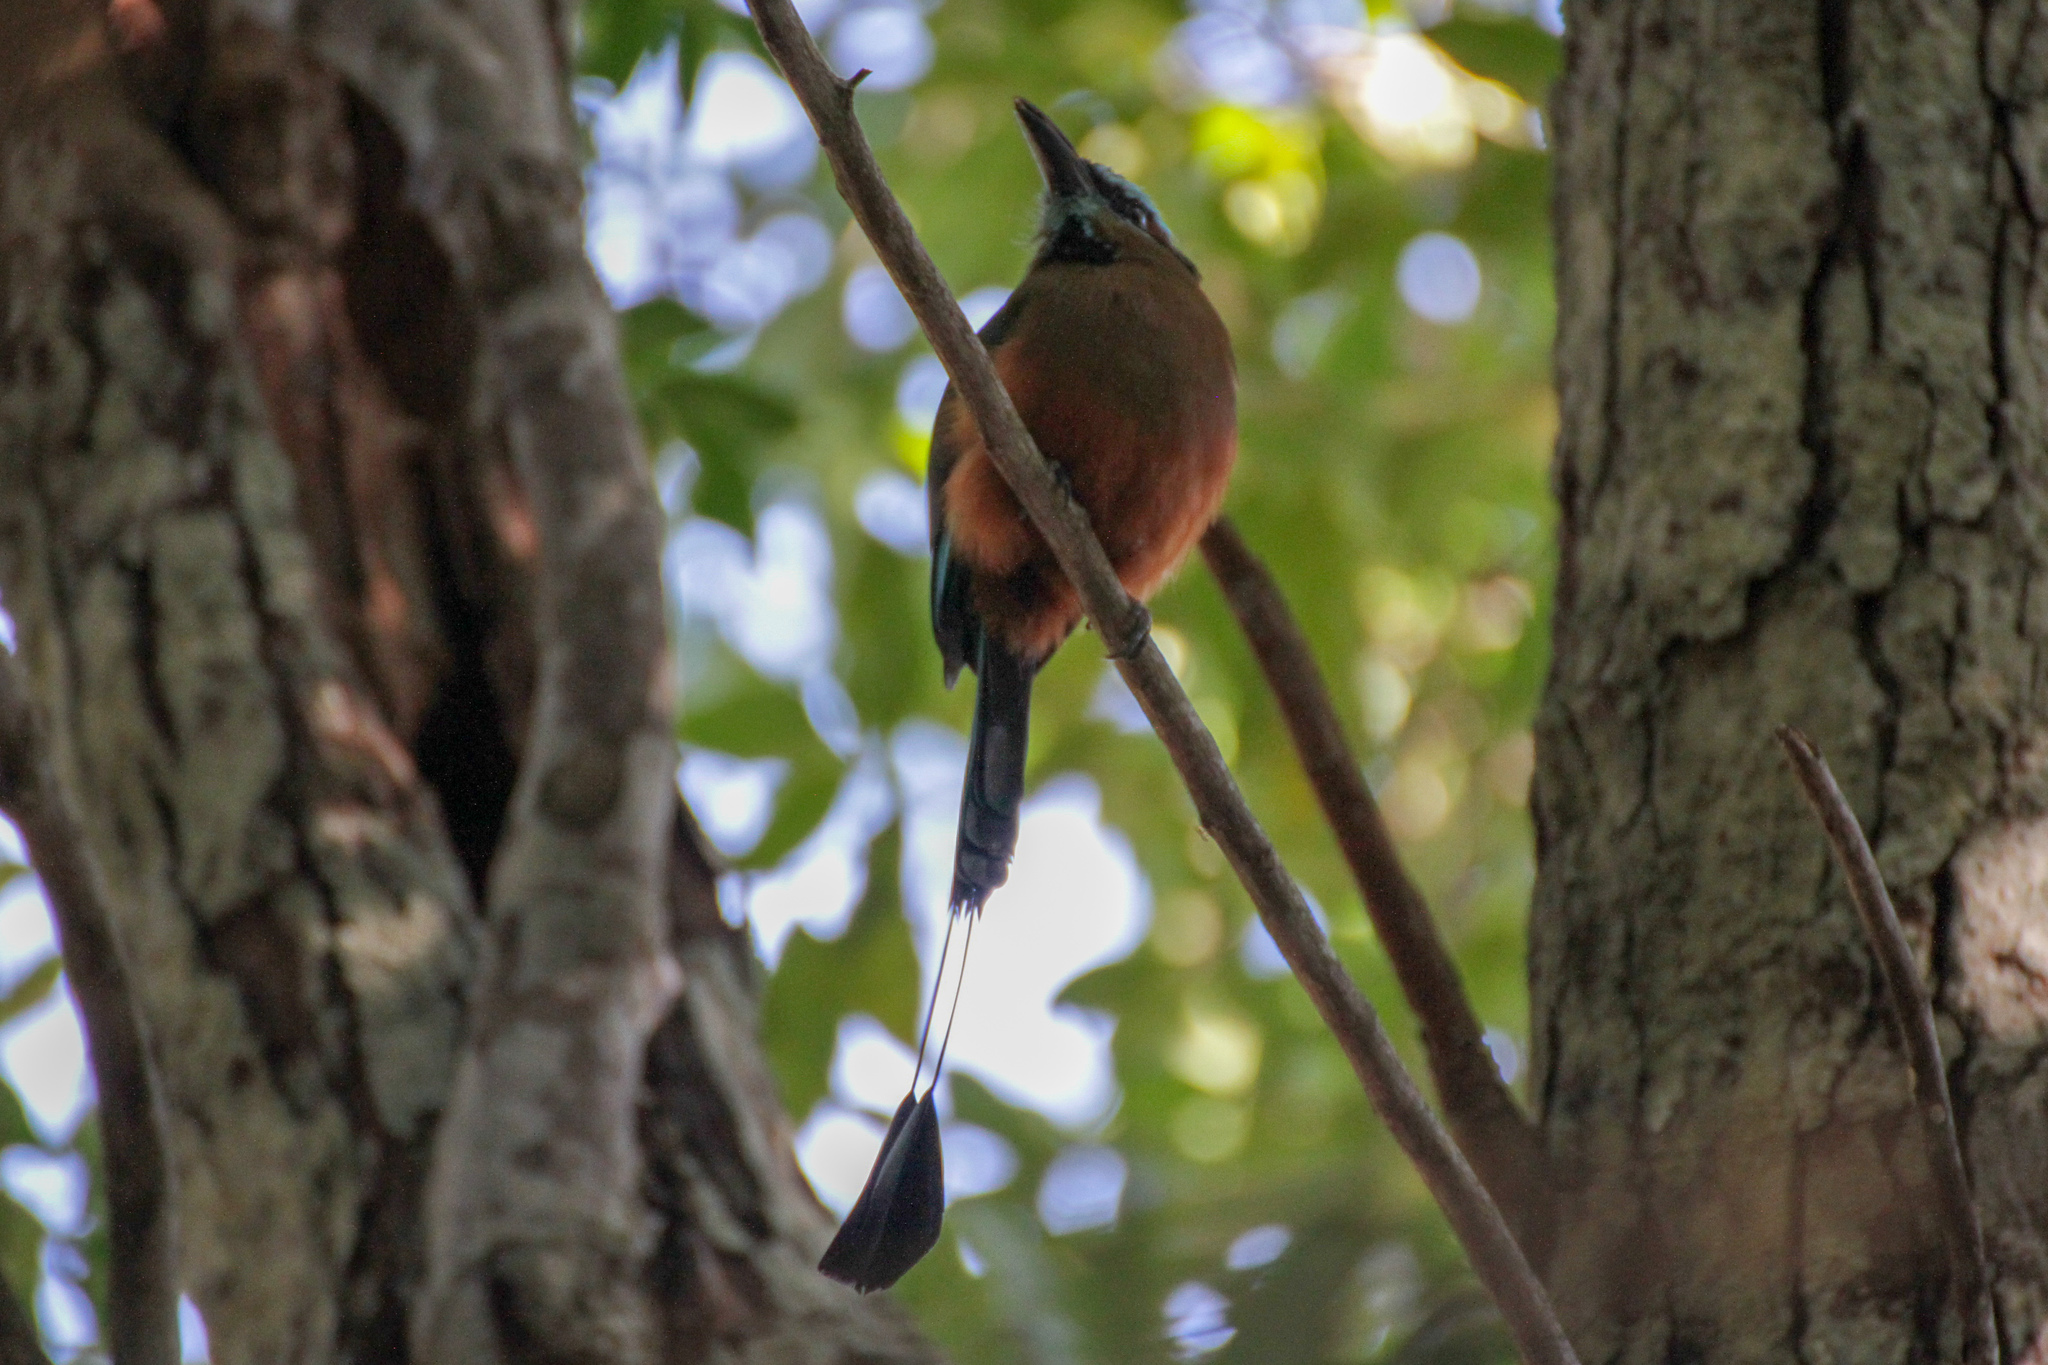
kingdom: Animalia
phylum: Chordata
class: Aves
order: Coraciiformes
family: Momotidae
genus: Eumomota
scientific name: Eumomota superciliosa
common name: Turquoise-browed motmot
